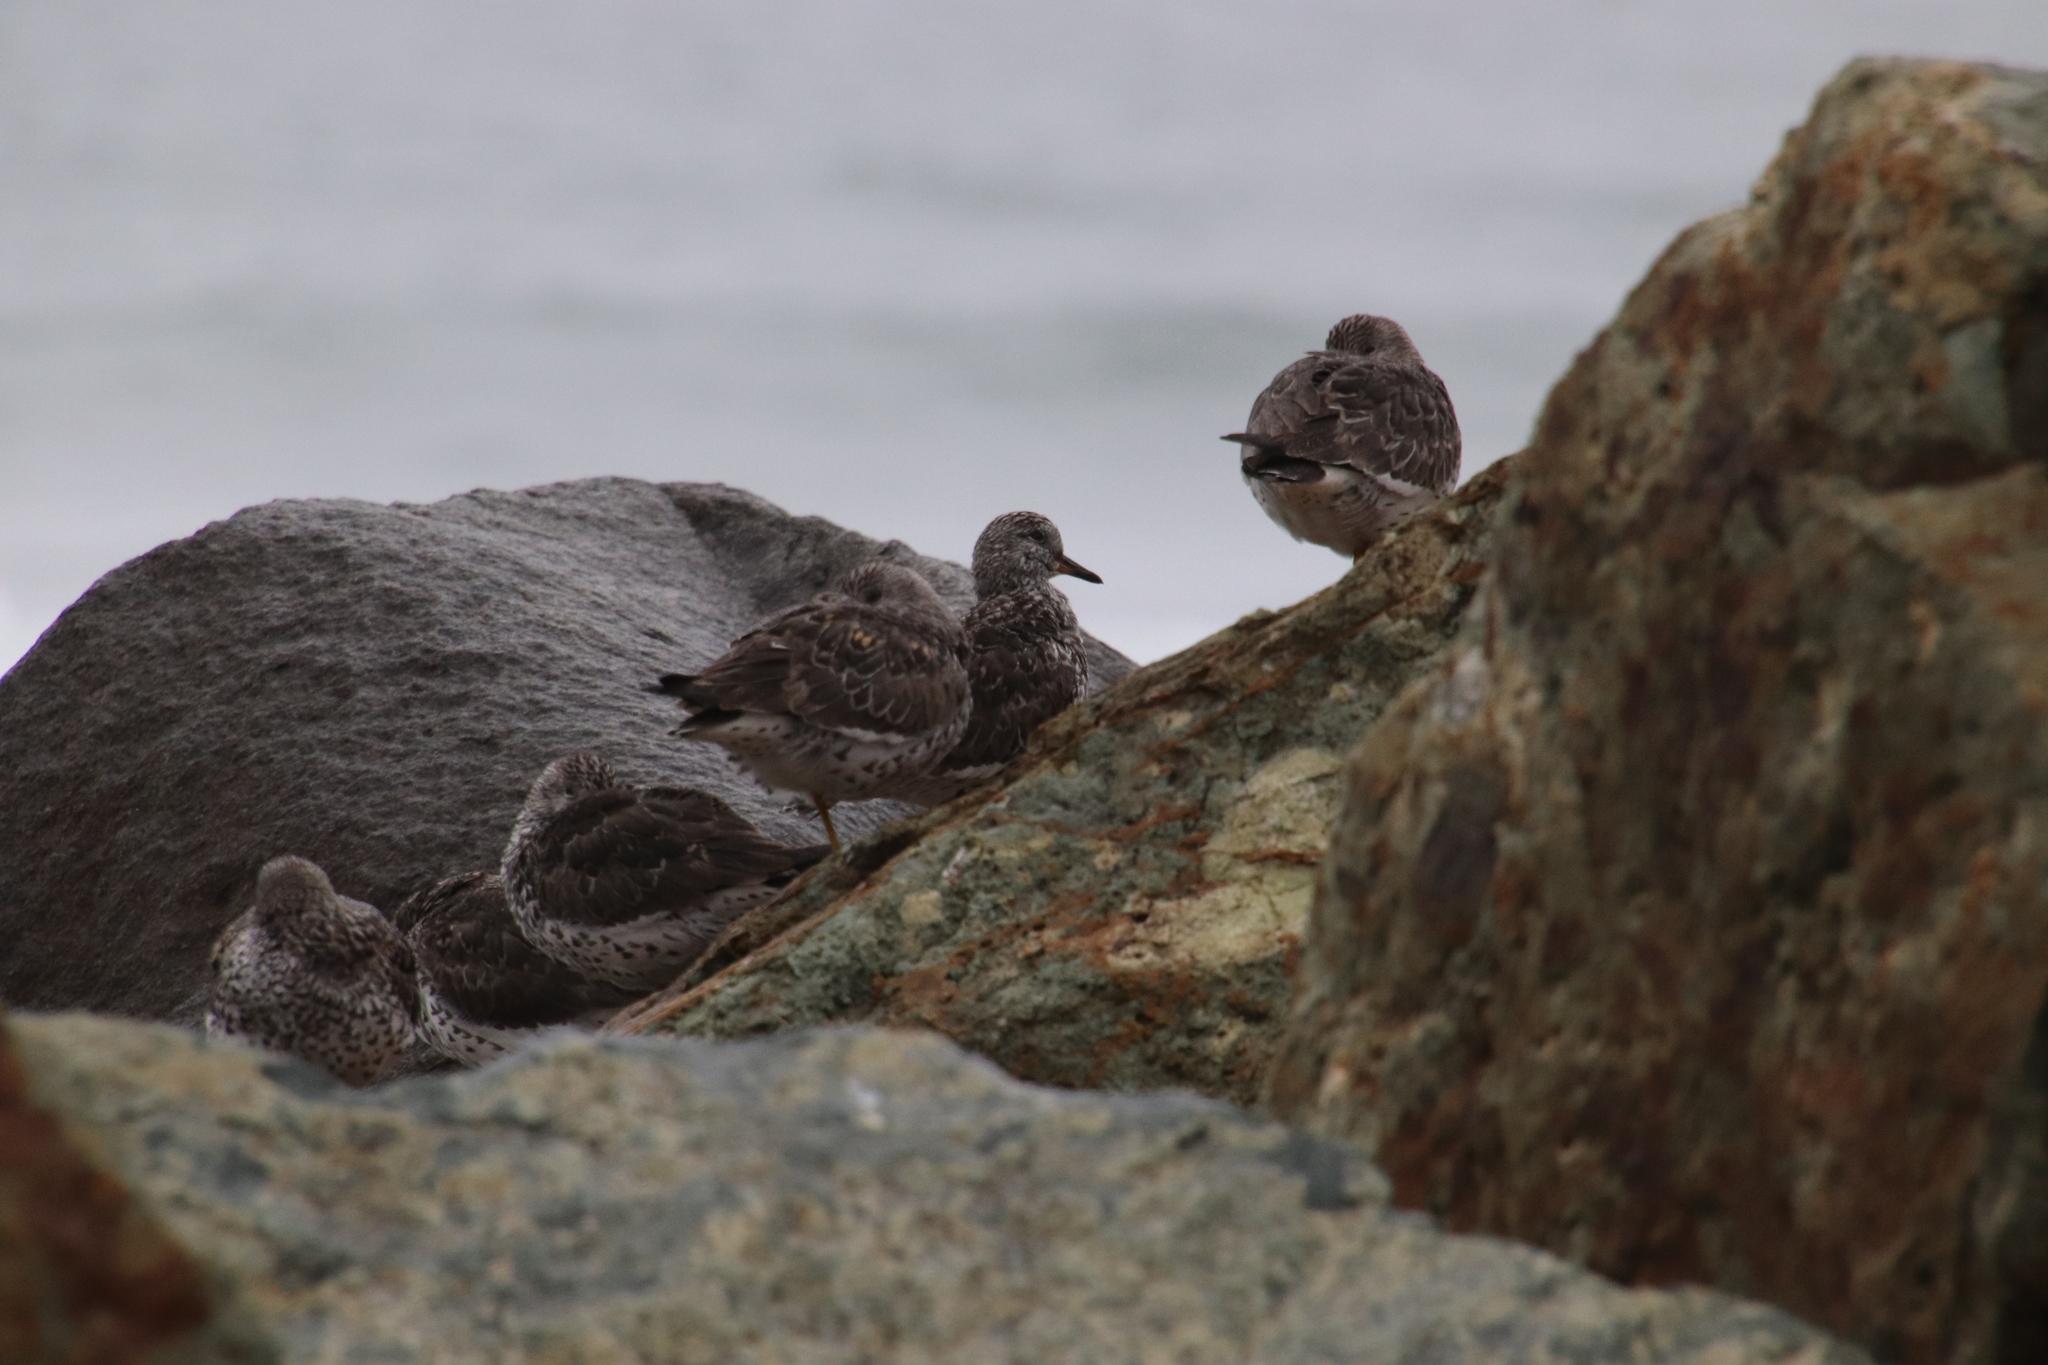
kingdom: Animalia
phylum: Chordata
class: Aves
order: Charadriiformes
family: Scolopacidae
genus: Calidris
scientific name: Calidris virgata
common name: Surfbird
